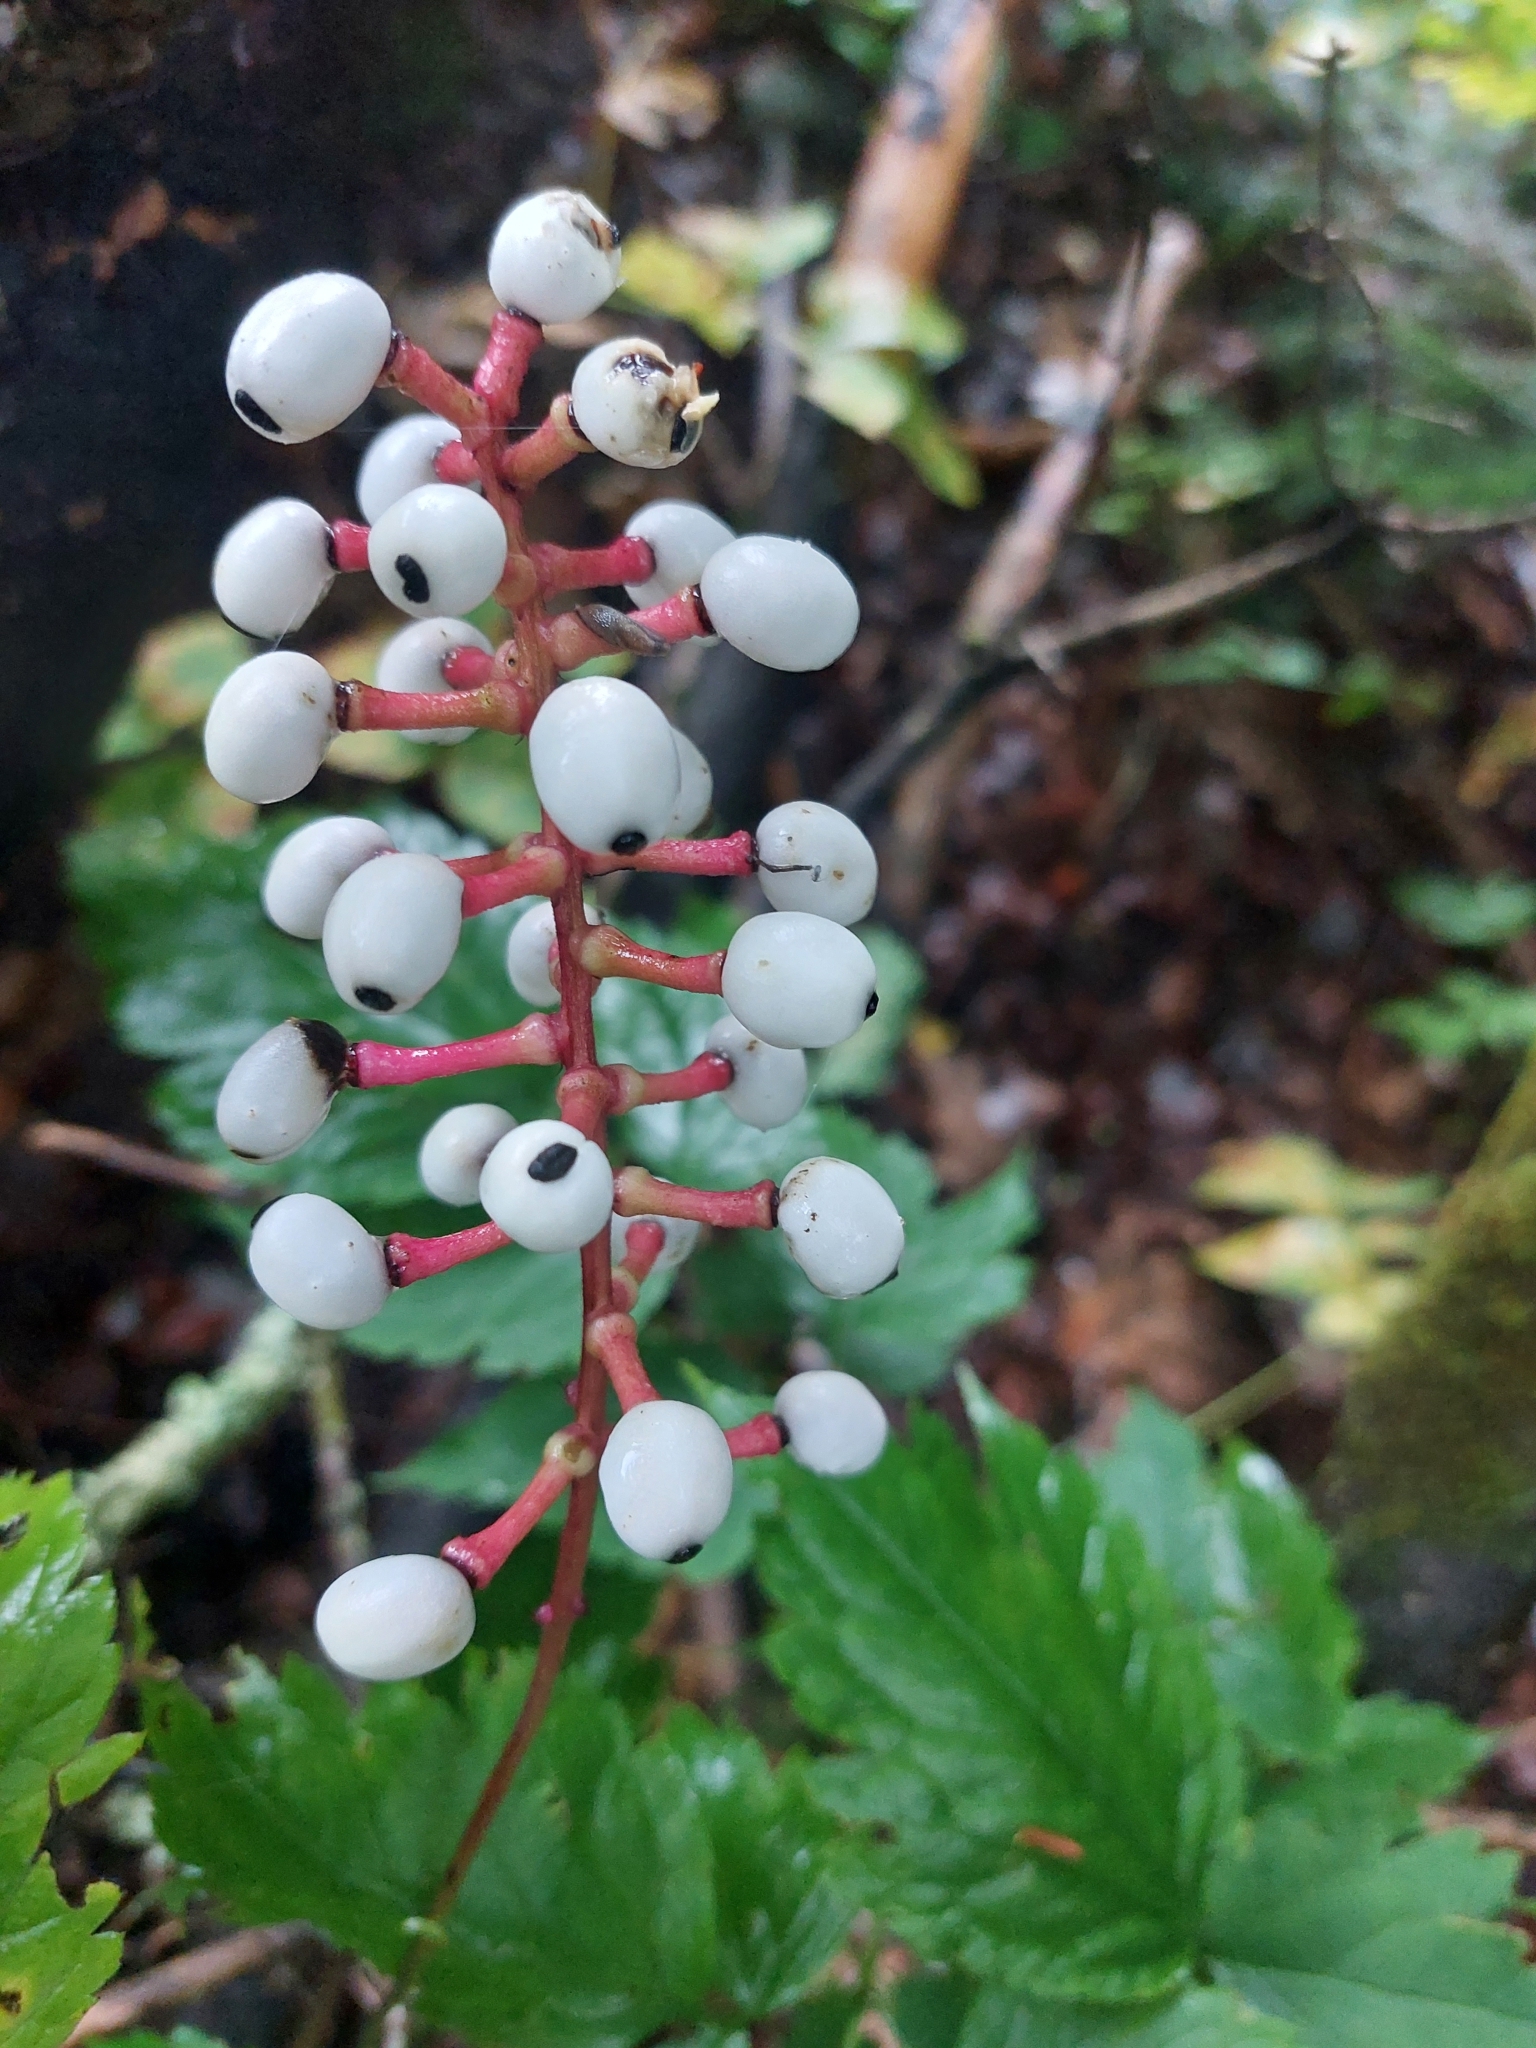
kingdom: Plantae
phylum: Tracheophyta
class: Magnoliopsida
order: Ranunculales
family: Ranunculaceae
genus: Actaea
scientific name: Actaea pachypoda
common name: Doll's-eyes
